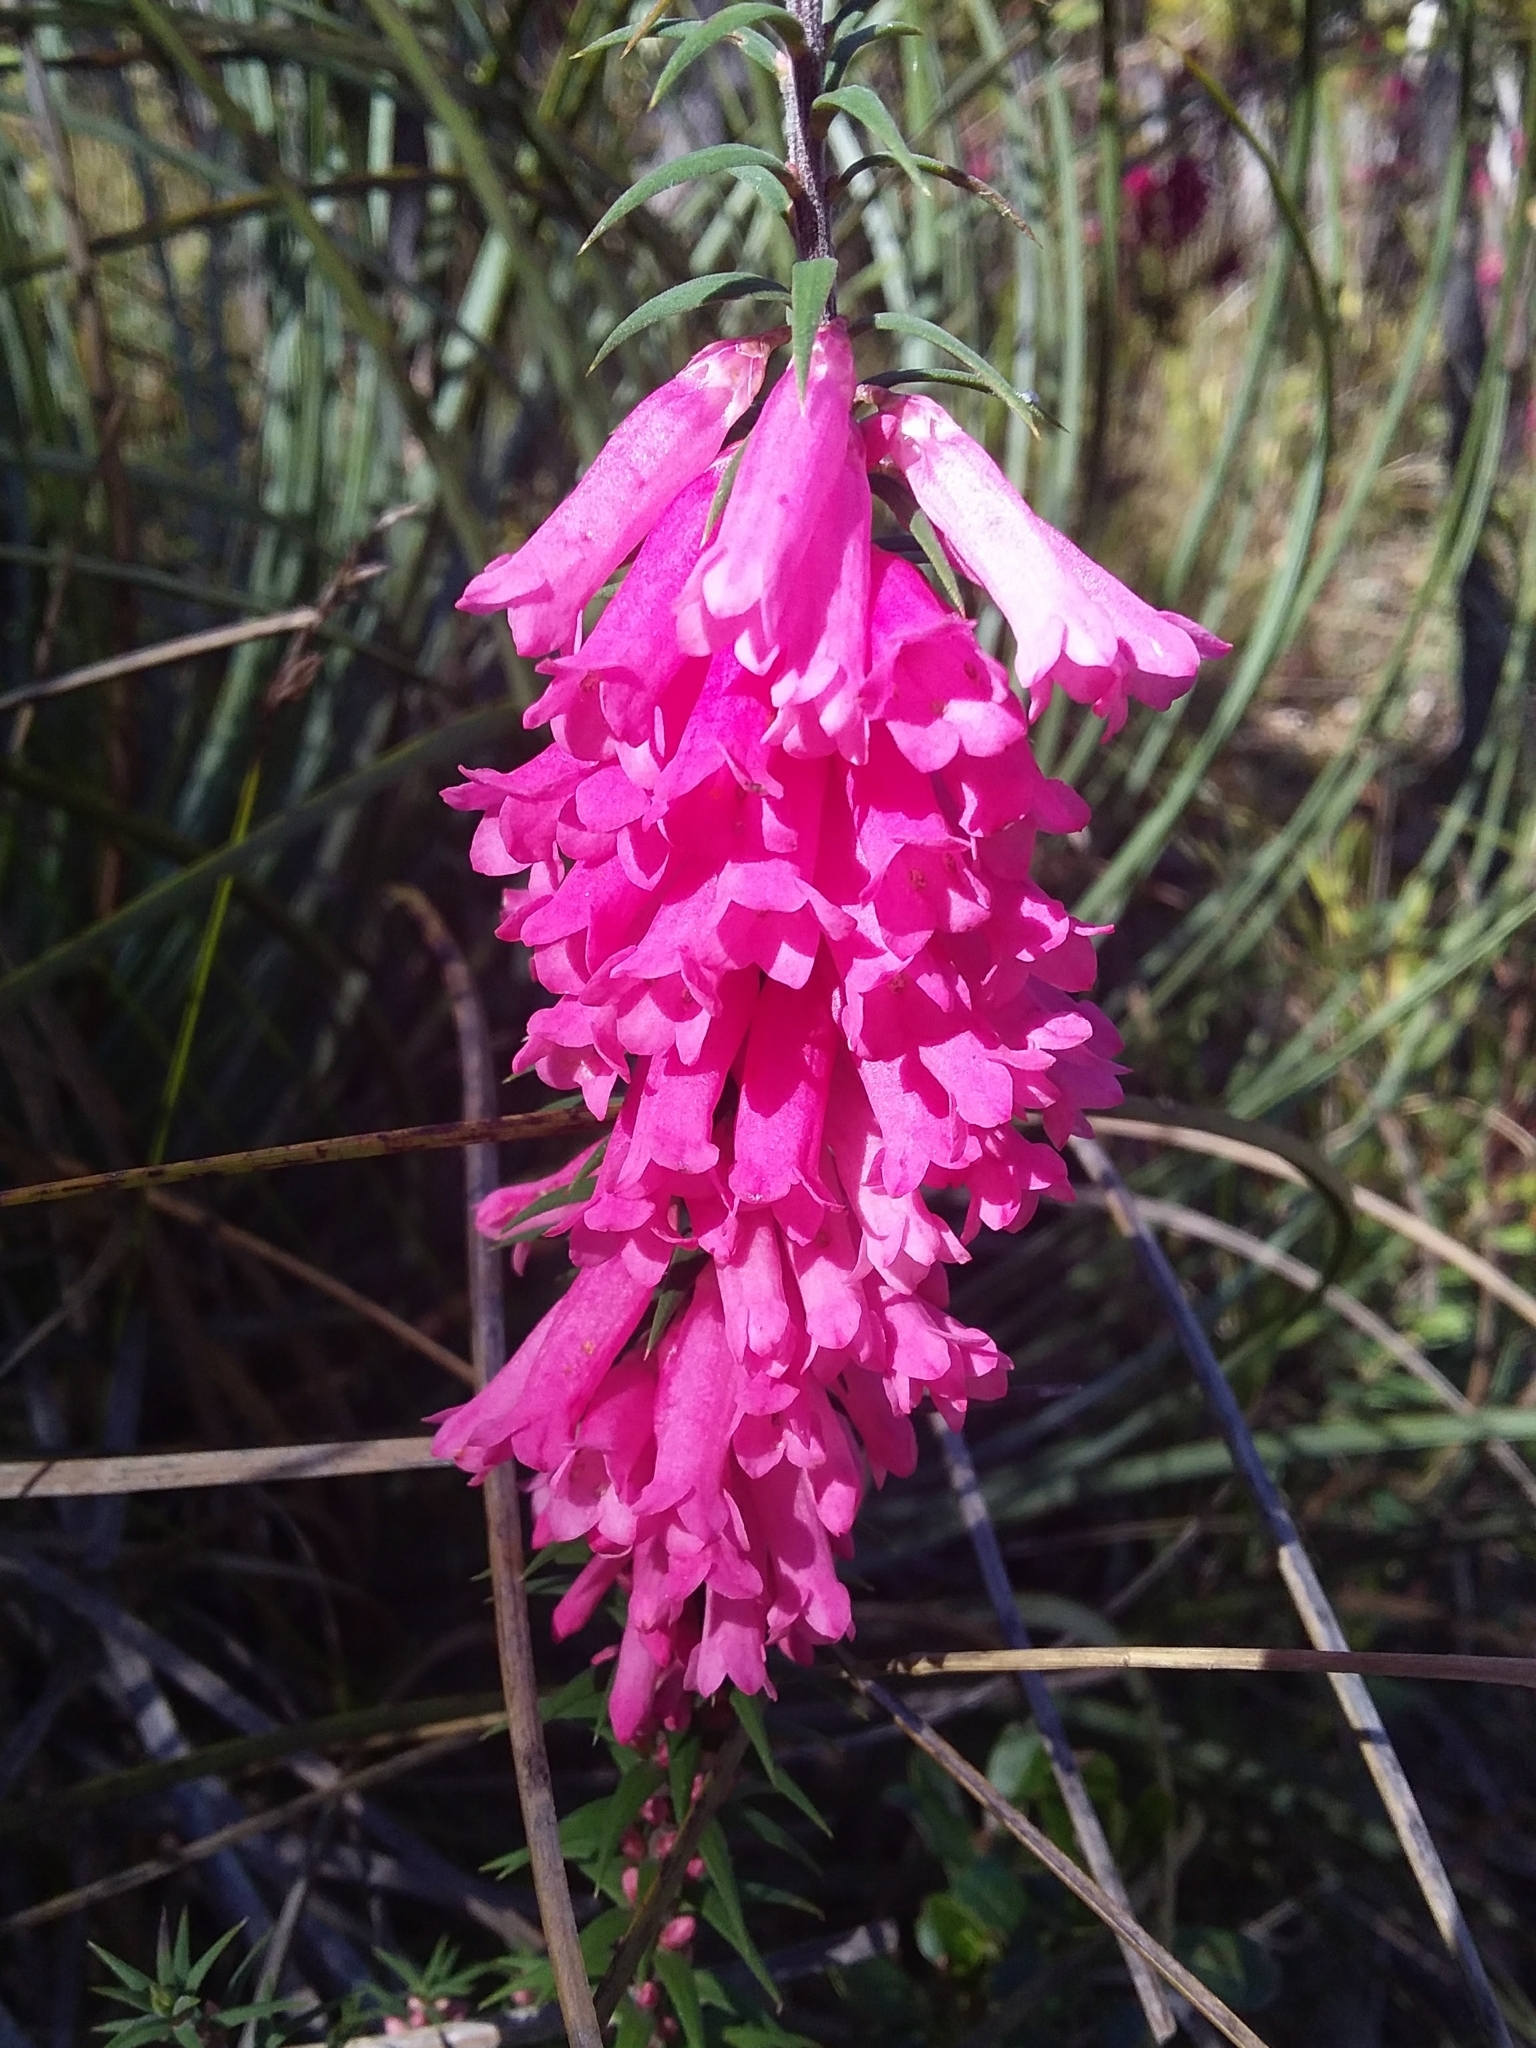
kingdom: Plantae
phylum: Tracheophyta
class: Magnoliopsida
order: Ericales
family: Ericaceae
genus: Epacris
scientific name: Epacris impressa
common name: Common-heath
